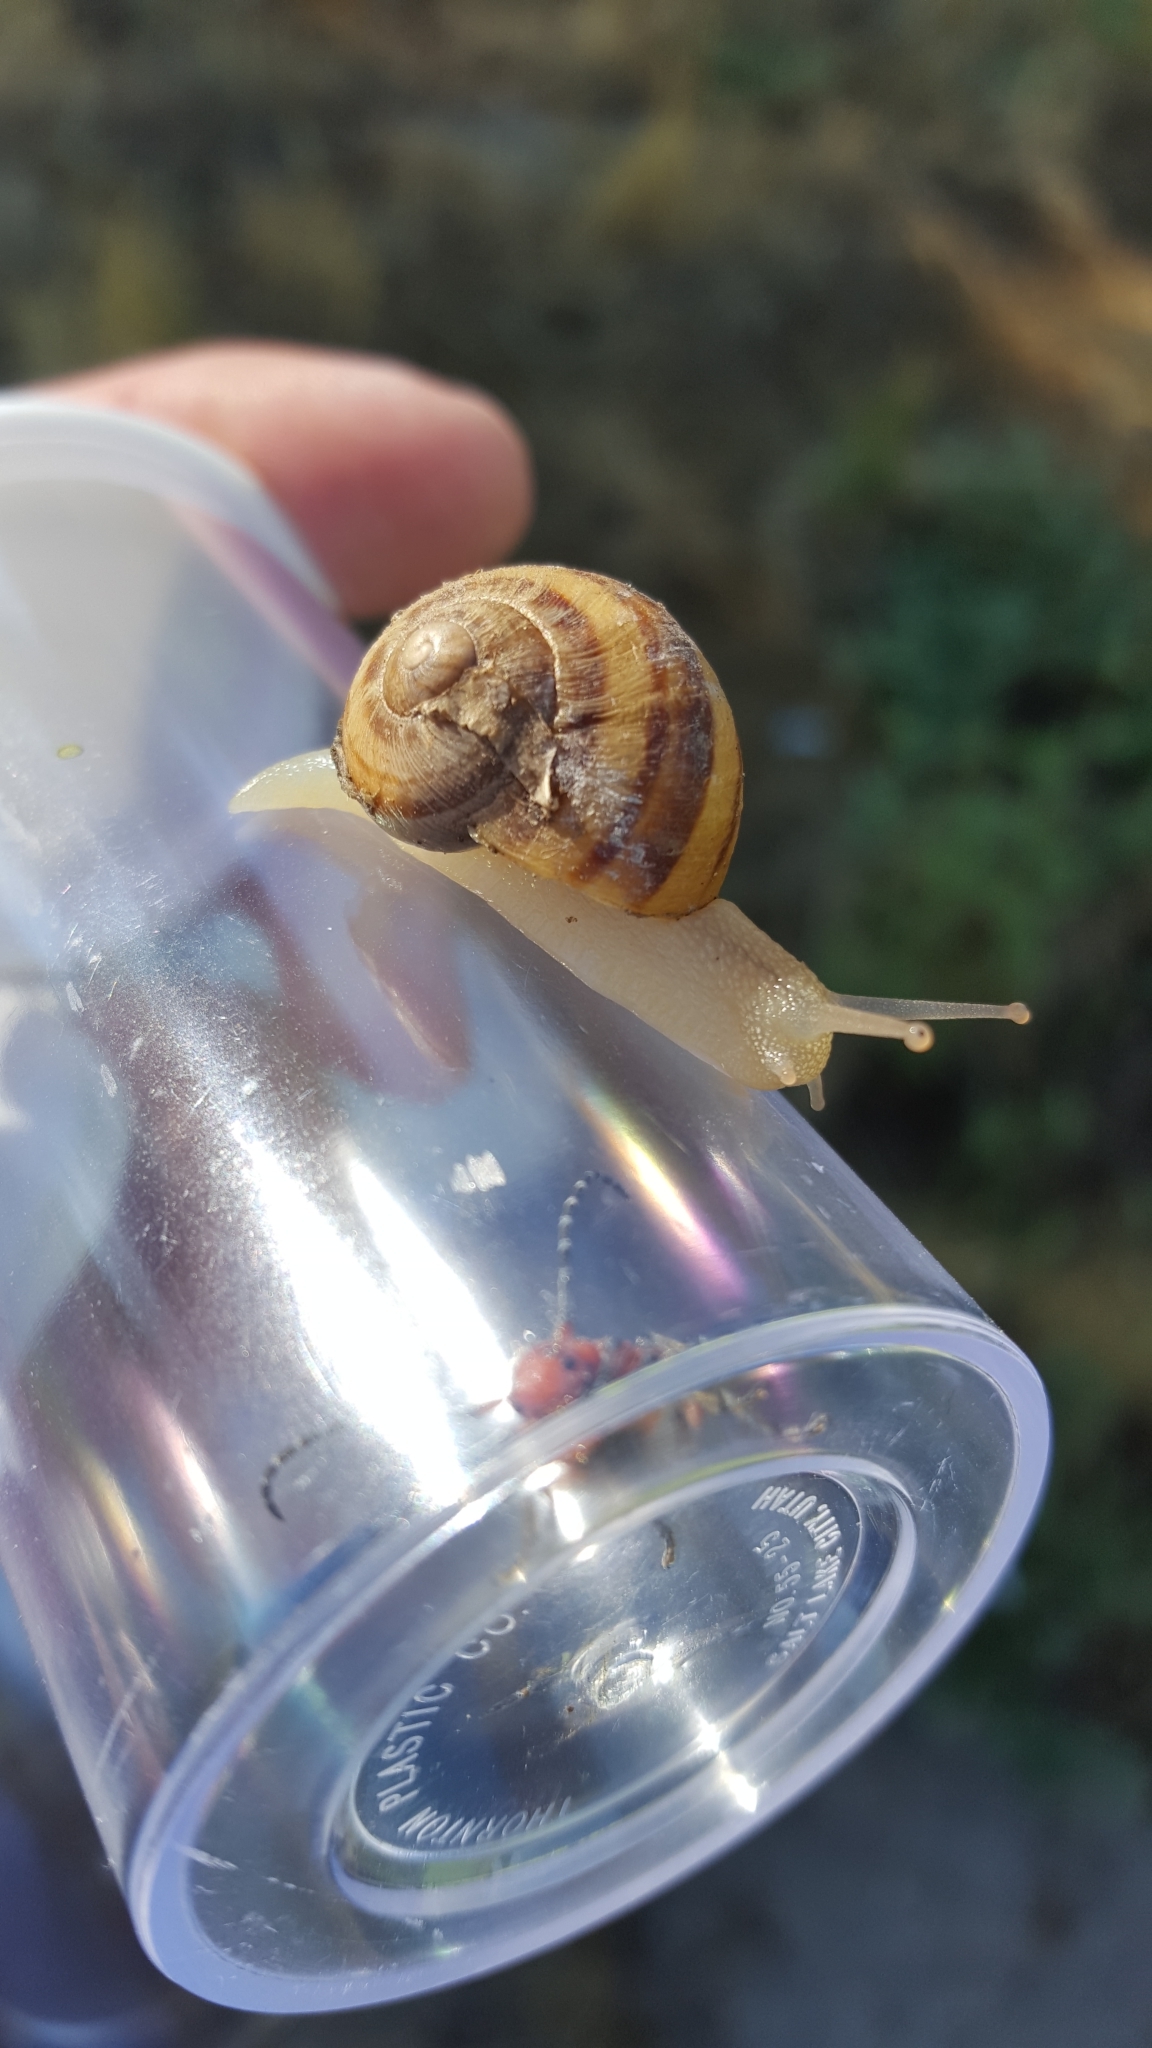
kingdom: Animalia
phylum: Mollusca
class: Gastropoda
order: Stylommatophora
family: Helicidae
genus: Cornu
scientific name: Cornu aspersum
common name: Brown garden snail
